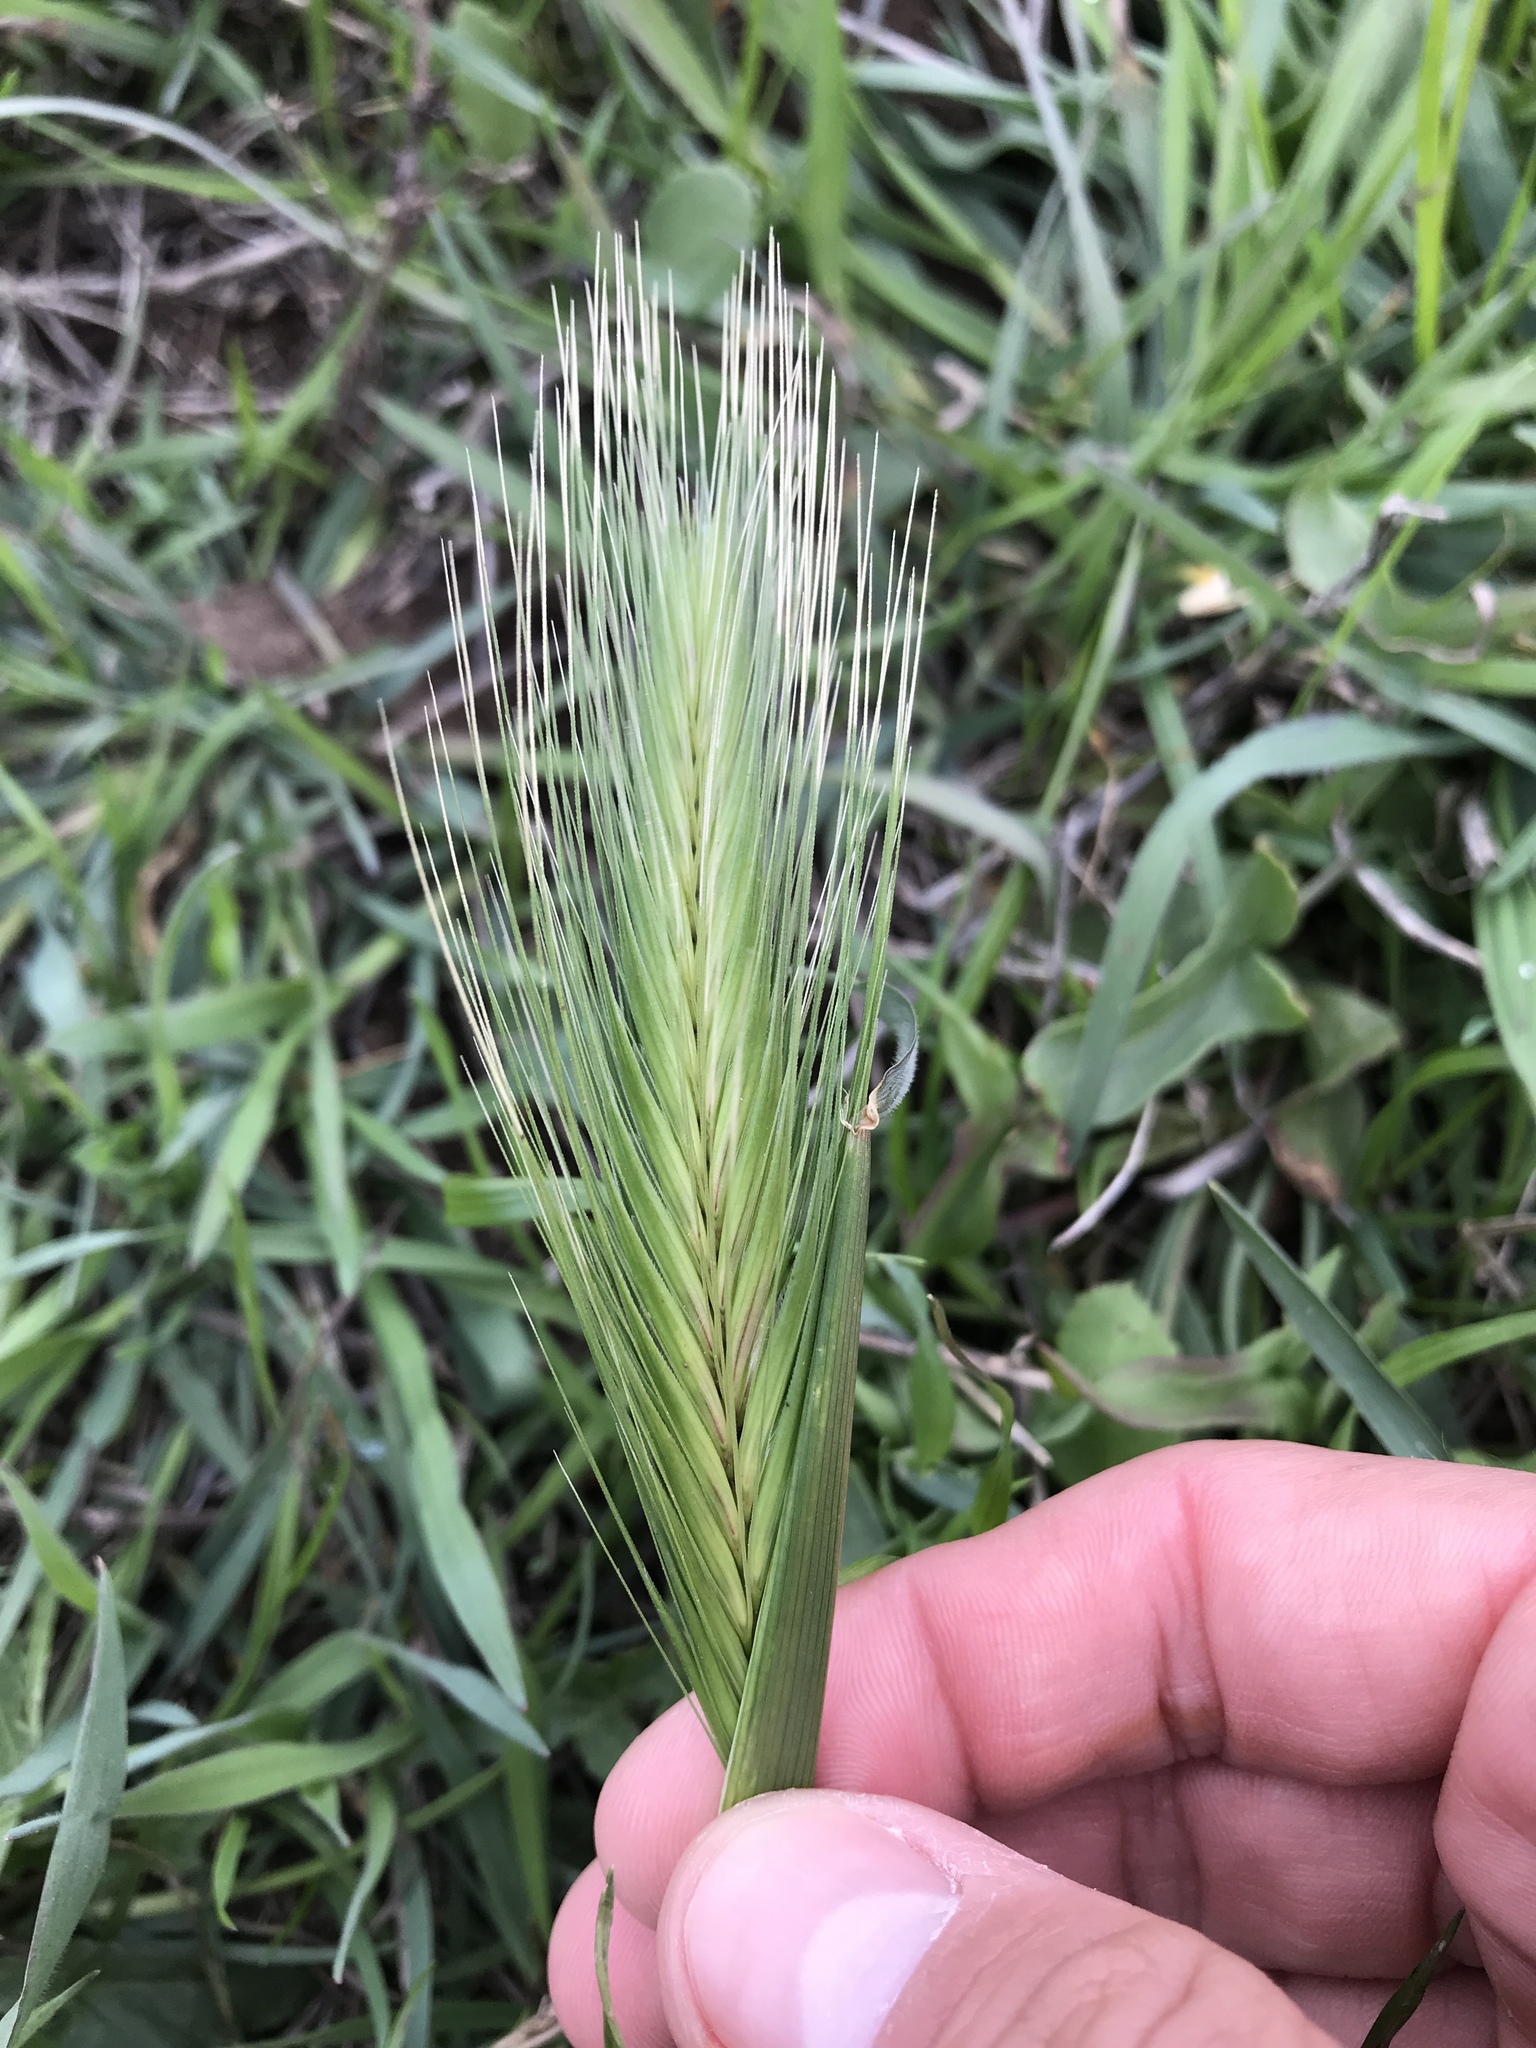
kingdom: Plantae
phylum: Tracheophyta
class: Liliopsida
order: Poales
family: Poaceae
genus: Hordeum
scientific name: Hordeum murinum
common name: Wall barley
